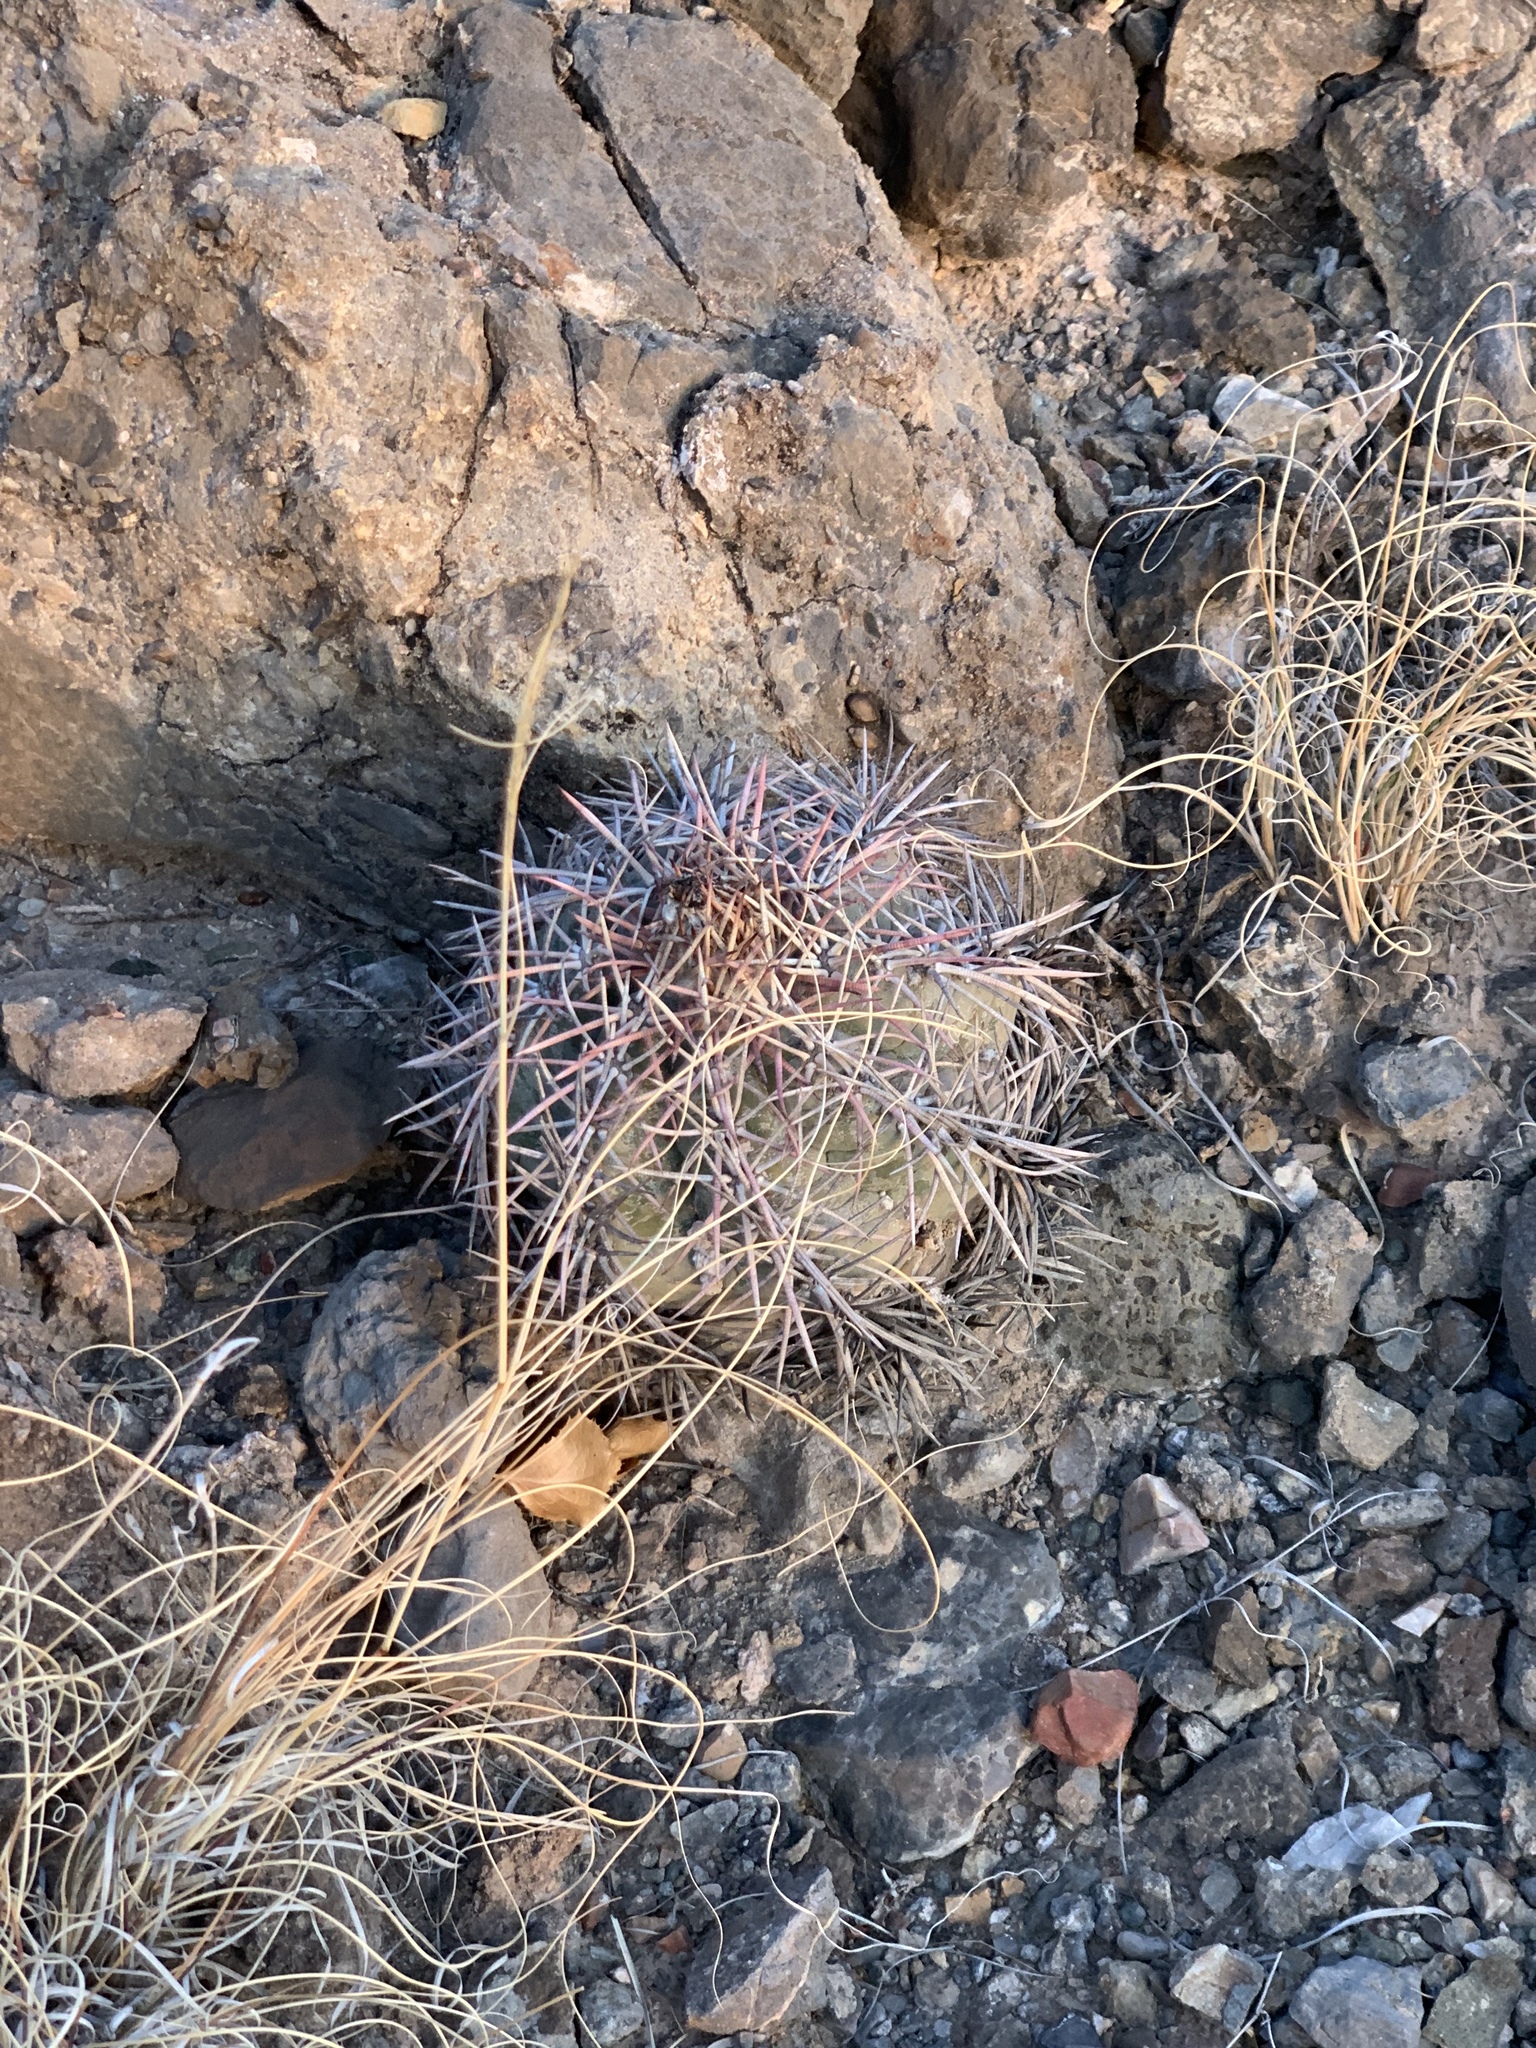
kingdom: Plantae
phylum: Tracheophyta
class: Magnoliopsida
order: Caryophyllales
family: Cactaceae
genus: Echinocactus
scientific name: Echinocactus horizonthalonius
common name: Devilshead
